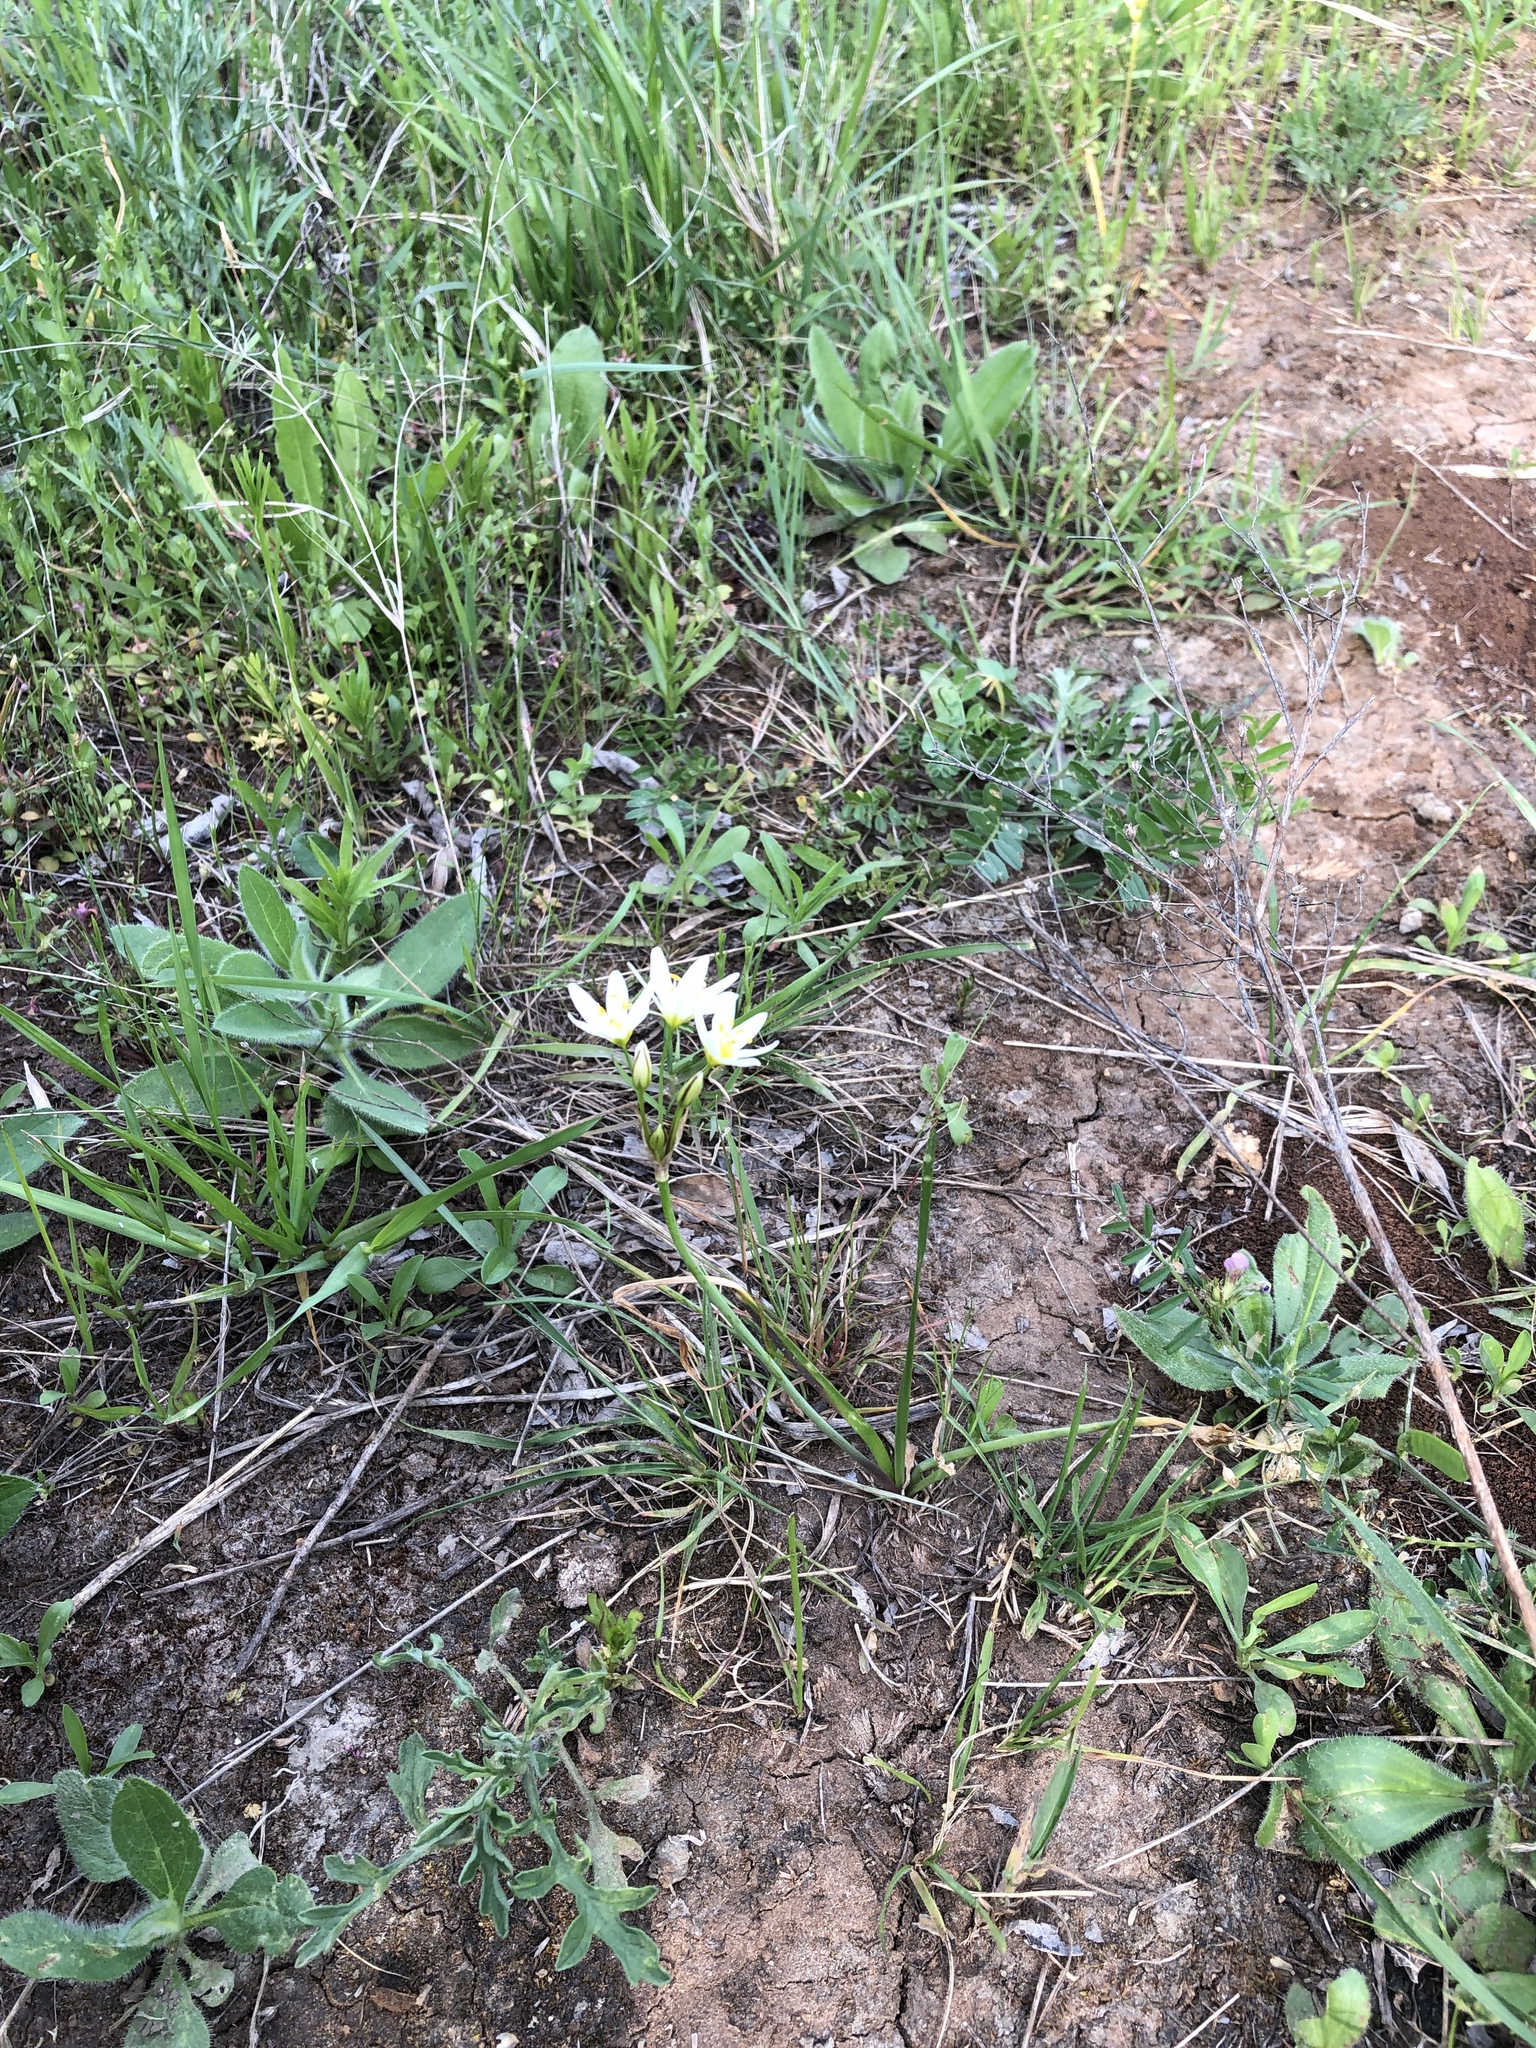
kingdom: Plantae
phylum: Tracheophyta
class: Liliopsida
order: Asparagales
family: Amaryllidaceae
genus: Nothoscordum
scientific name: Nothoscordum bivalve
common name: Crow-poison
